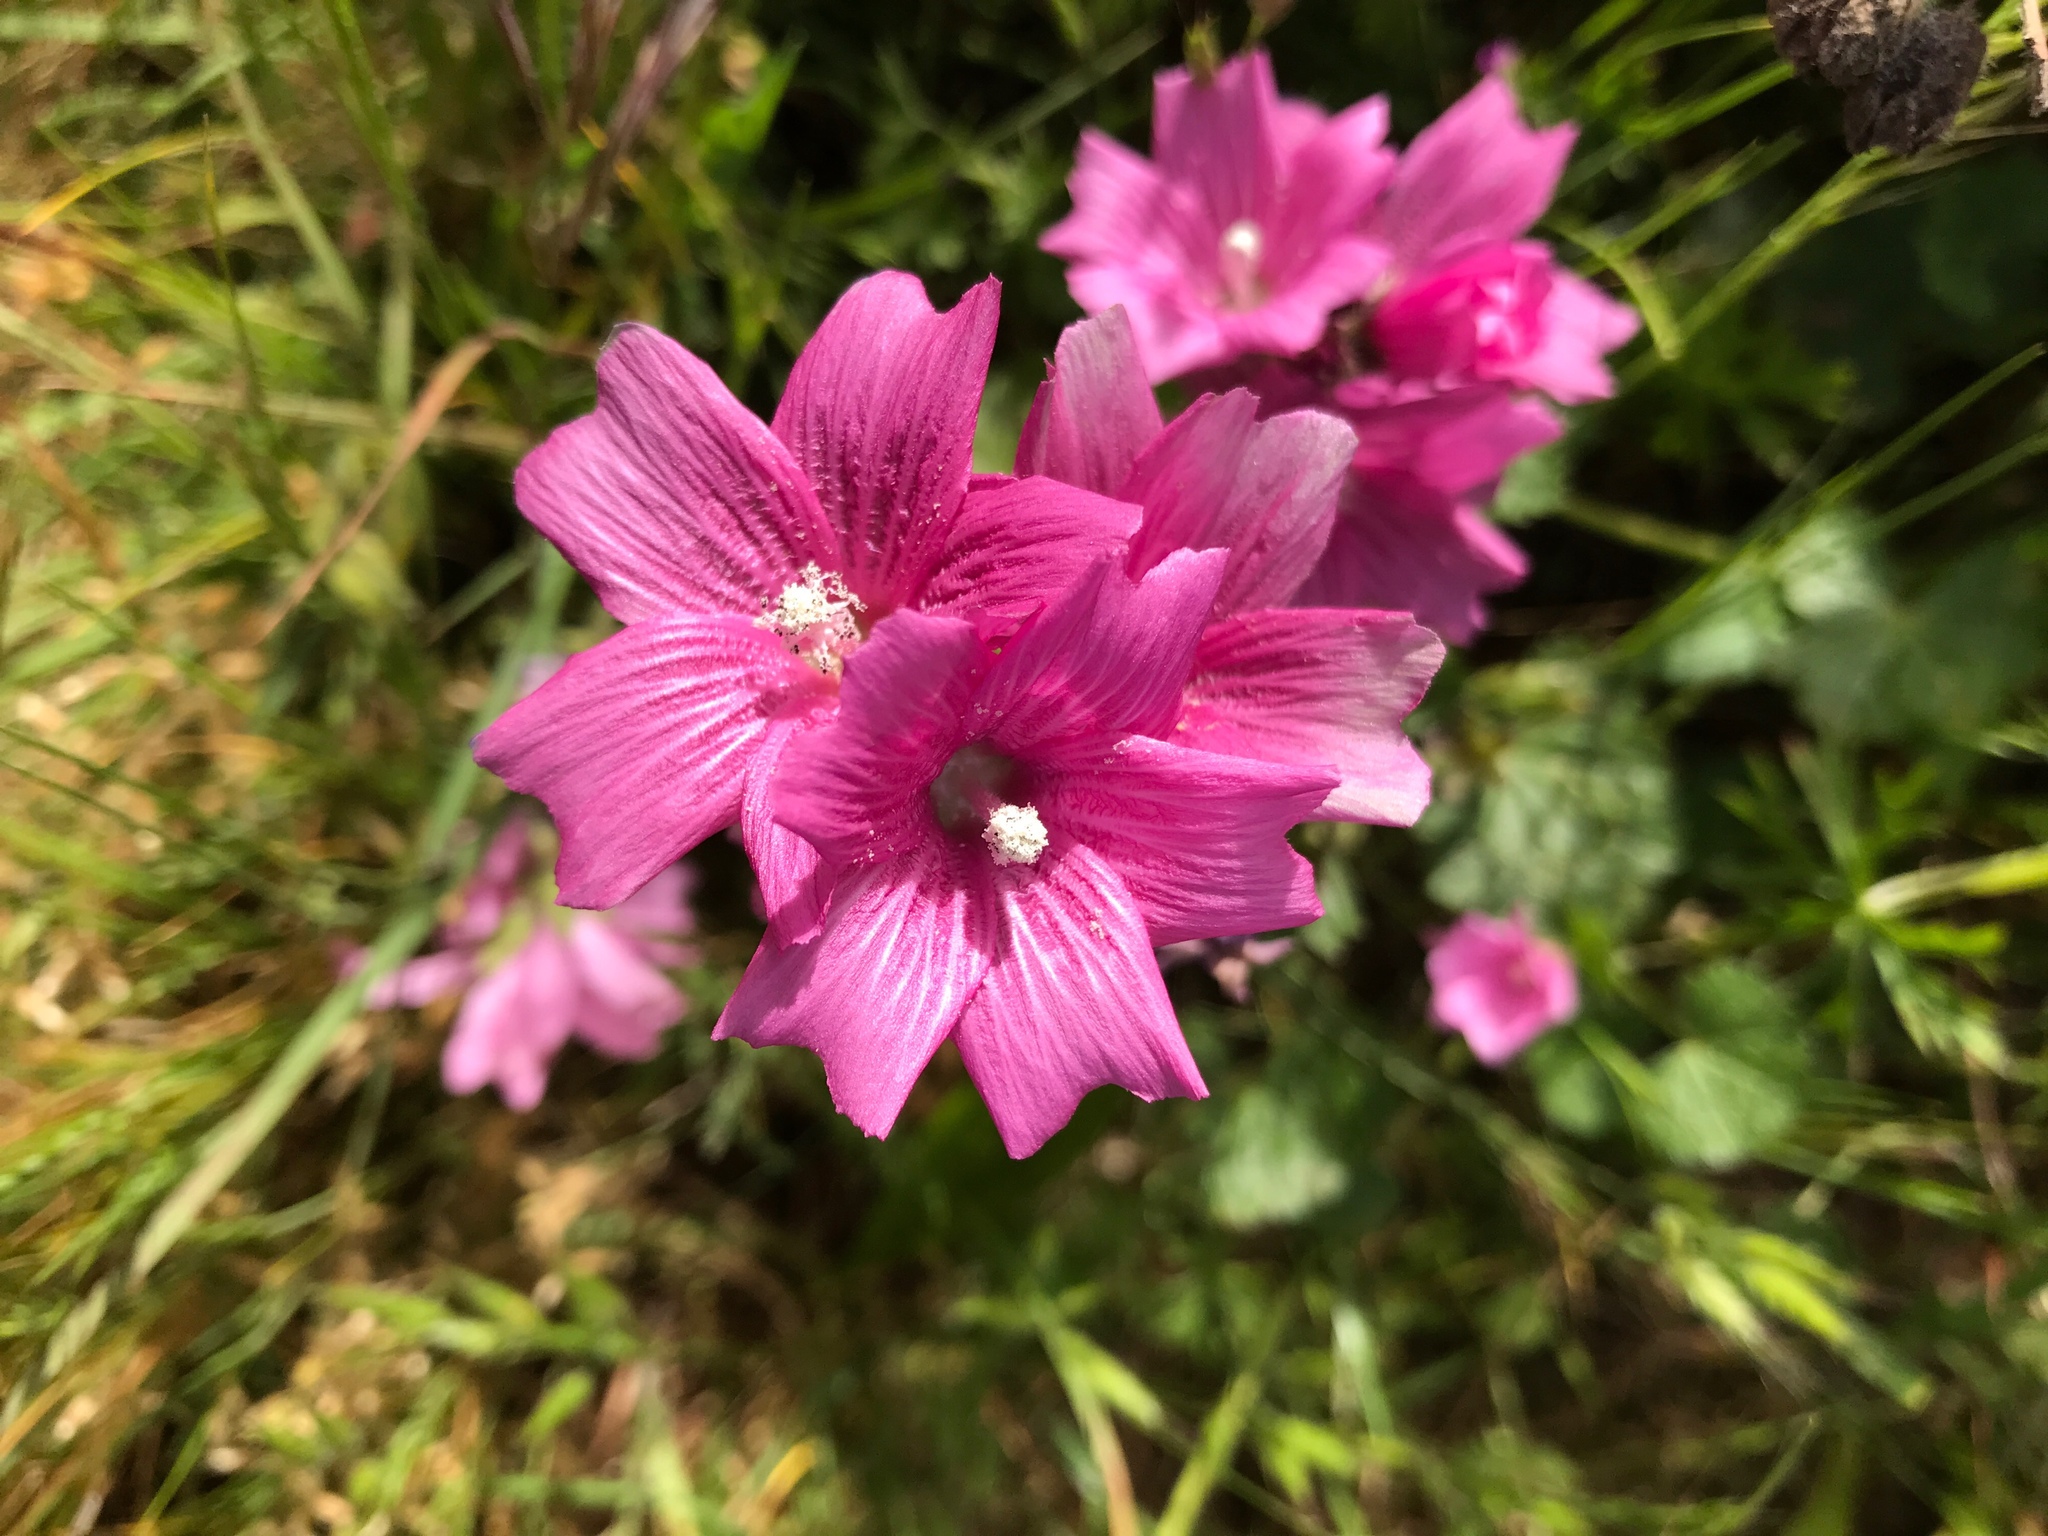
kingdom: Plantae
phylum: Tracheophyta
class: Magnoliopsida
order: Malvales
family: Malvaceae
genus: Sidalcea
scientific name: Sidalcea malviflora
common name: Greek mallow
